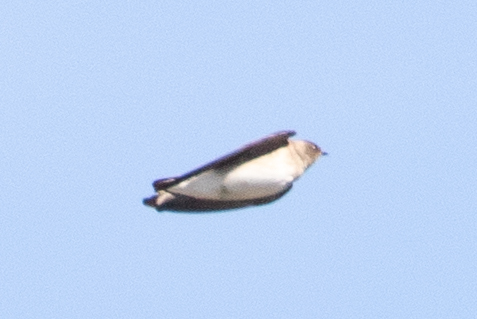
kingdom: Animalia
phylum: Chordata
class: Aves
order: Passeriformes
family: Hirundinidae
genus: Stelgidopteryx
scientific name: Stelgidopteryx serripennis
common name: Northern rough-winged swallow
